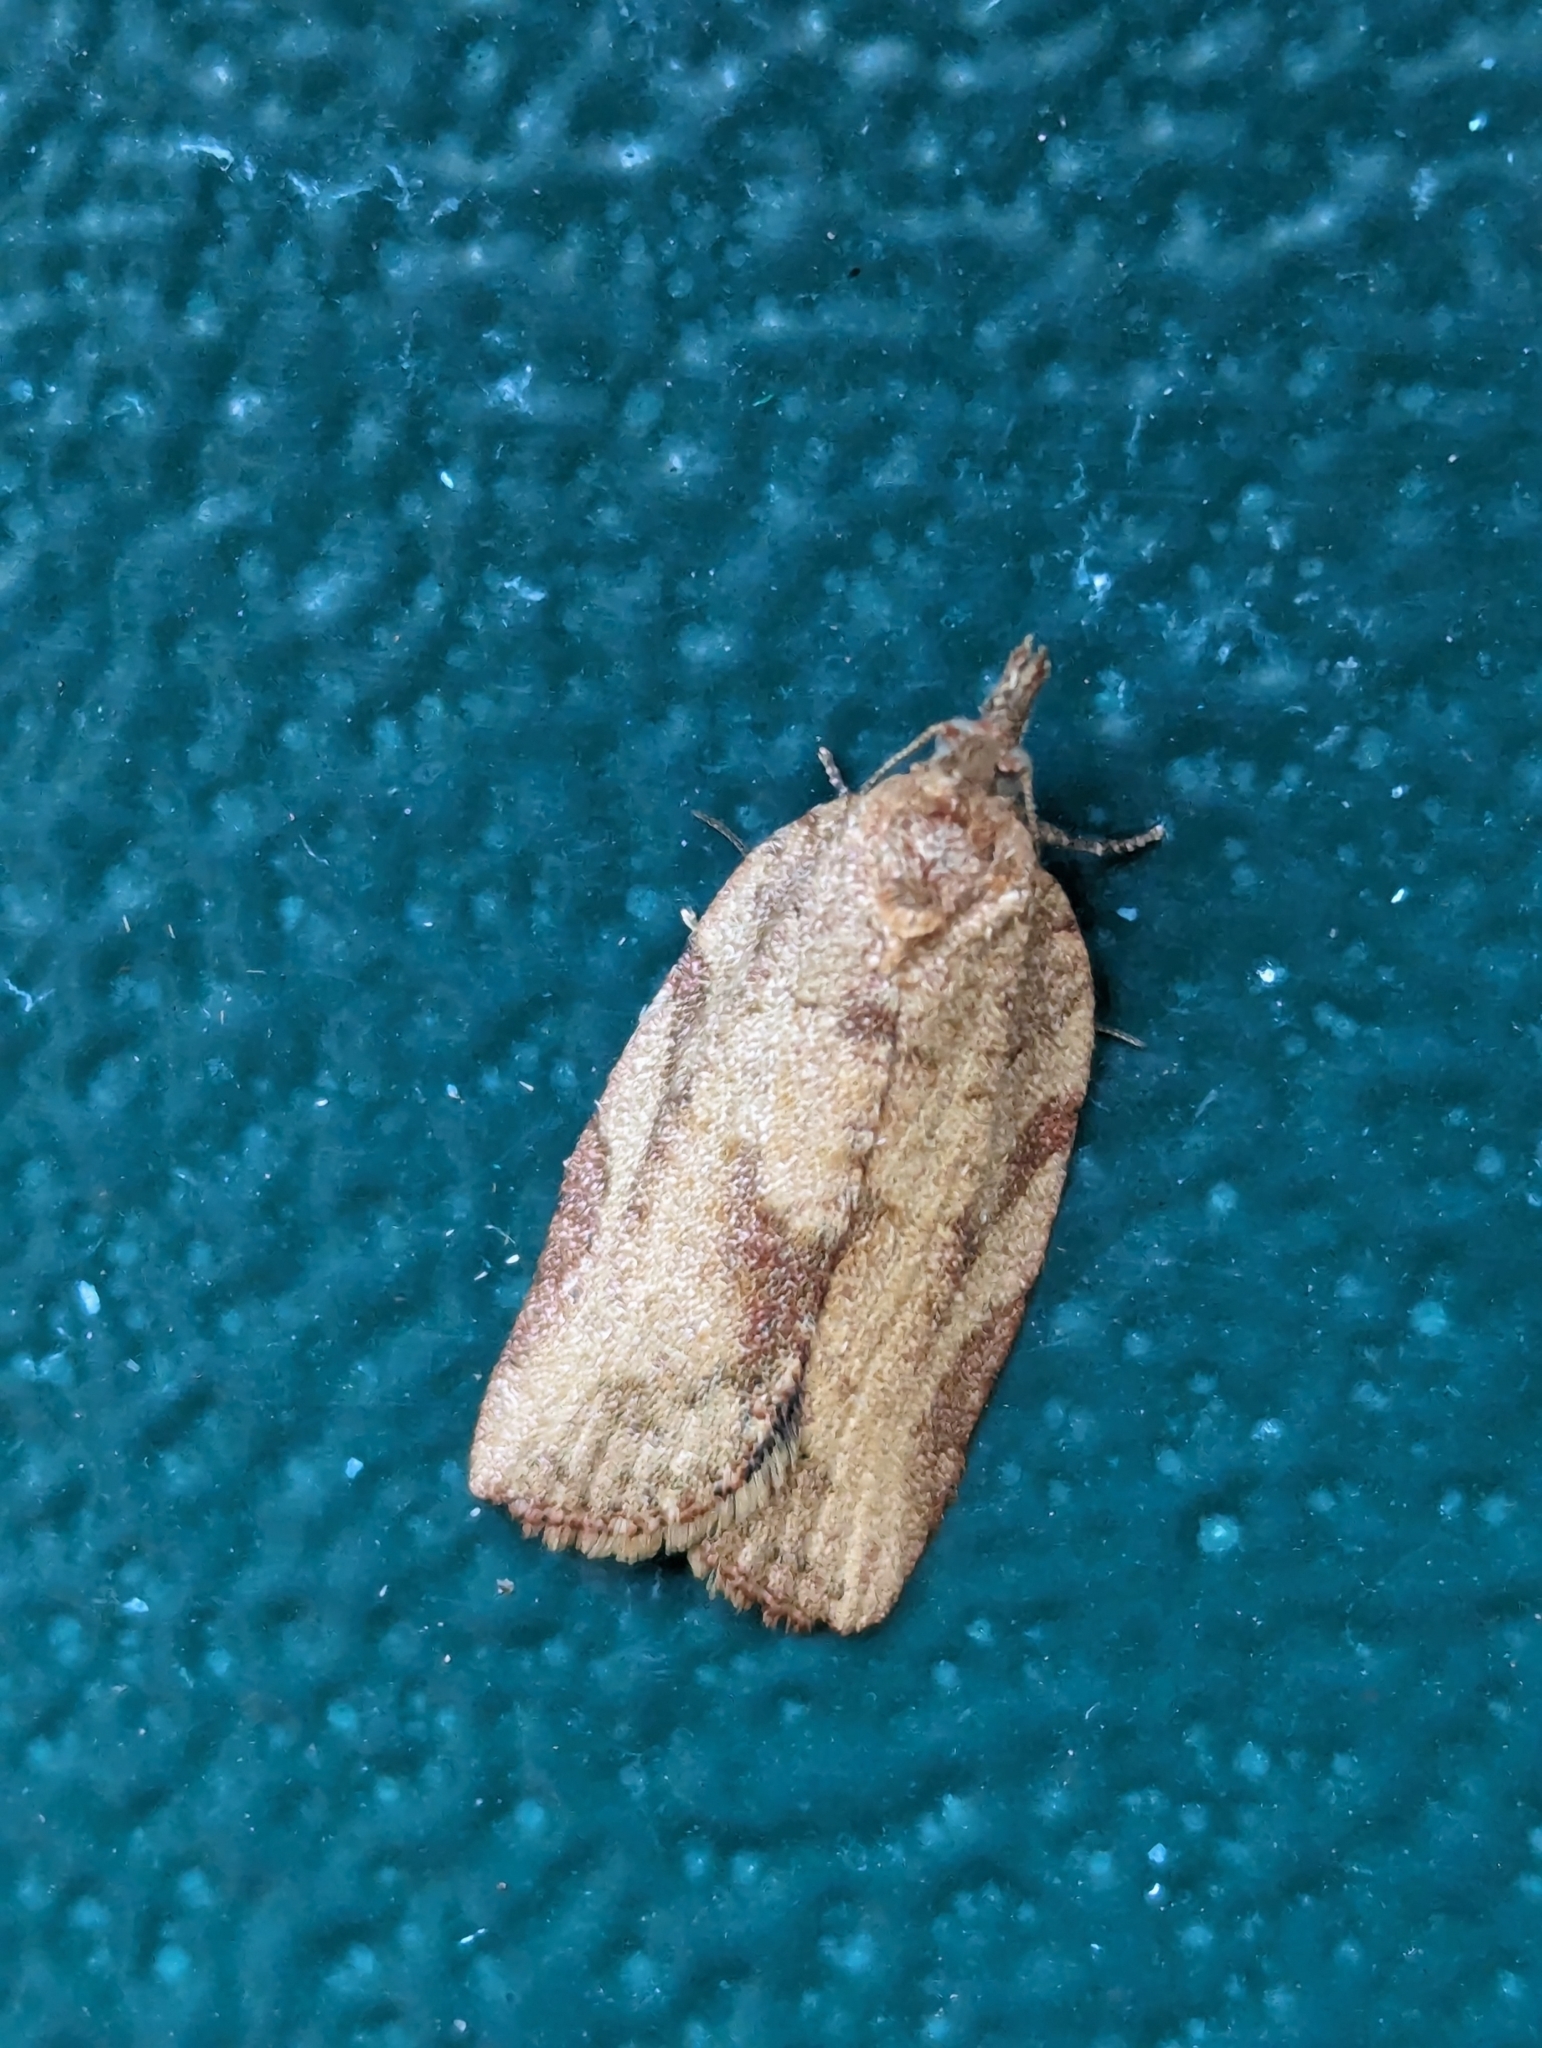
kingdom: Animalia
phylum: Arthropoda
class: Insecta
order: Lepidoptera
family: Tortricidae
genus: Epiphyas
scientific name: Epiphyas postvittana
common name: Light brown apple moth
